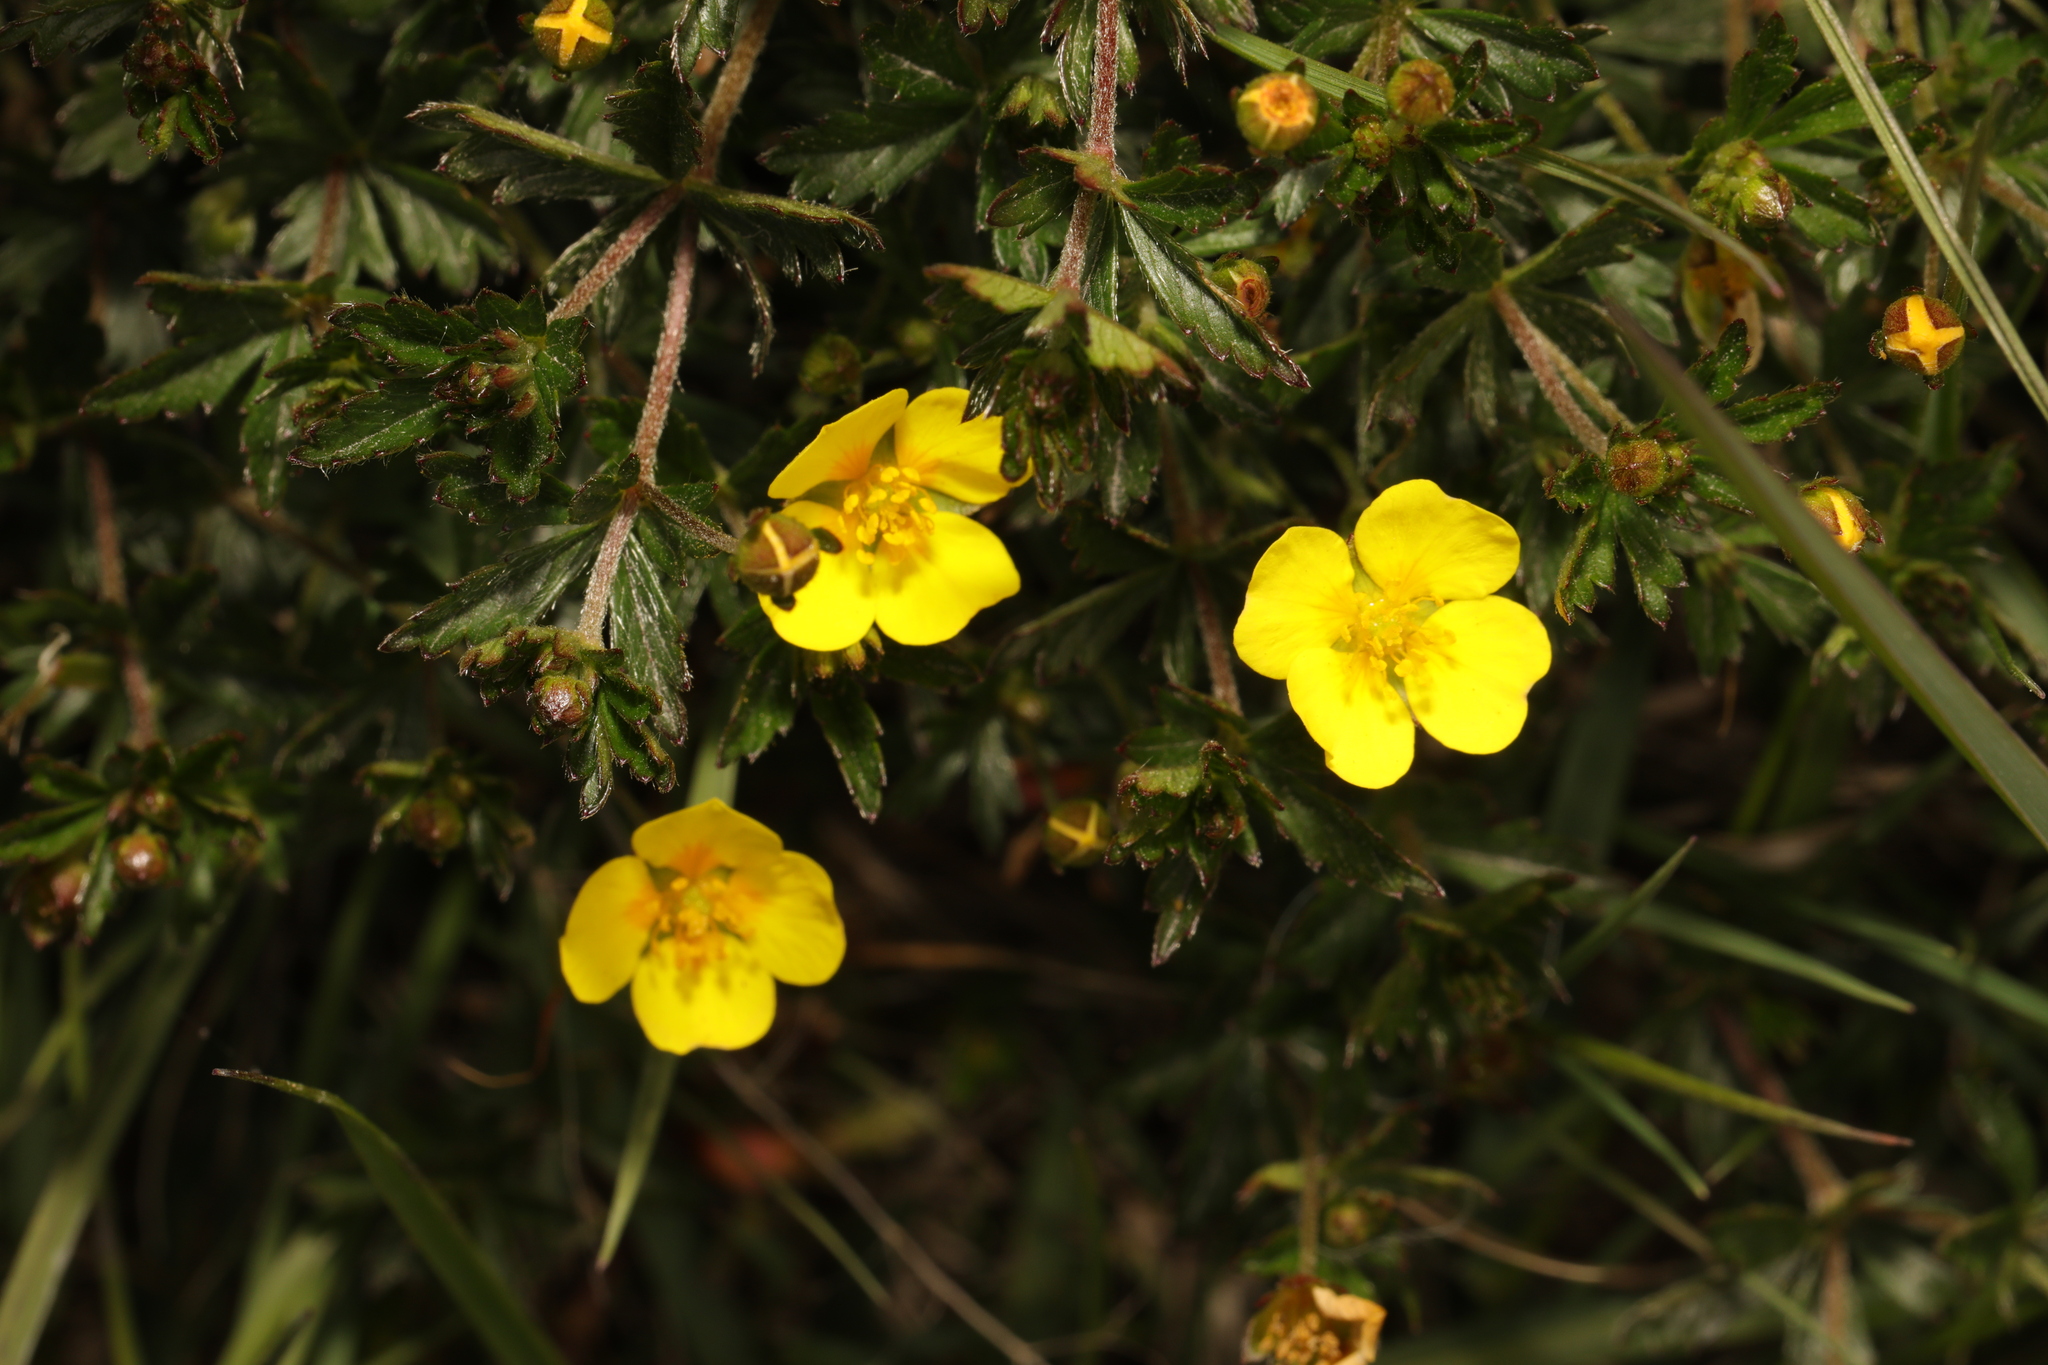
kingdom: Plantae
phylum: Tracheophyta
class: Magnoliopsida
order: Rosales
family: Rosaceae
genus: Potentilla
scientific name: Potentilla erecta
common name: Tormentil
